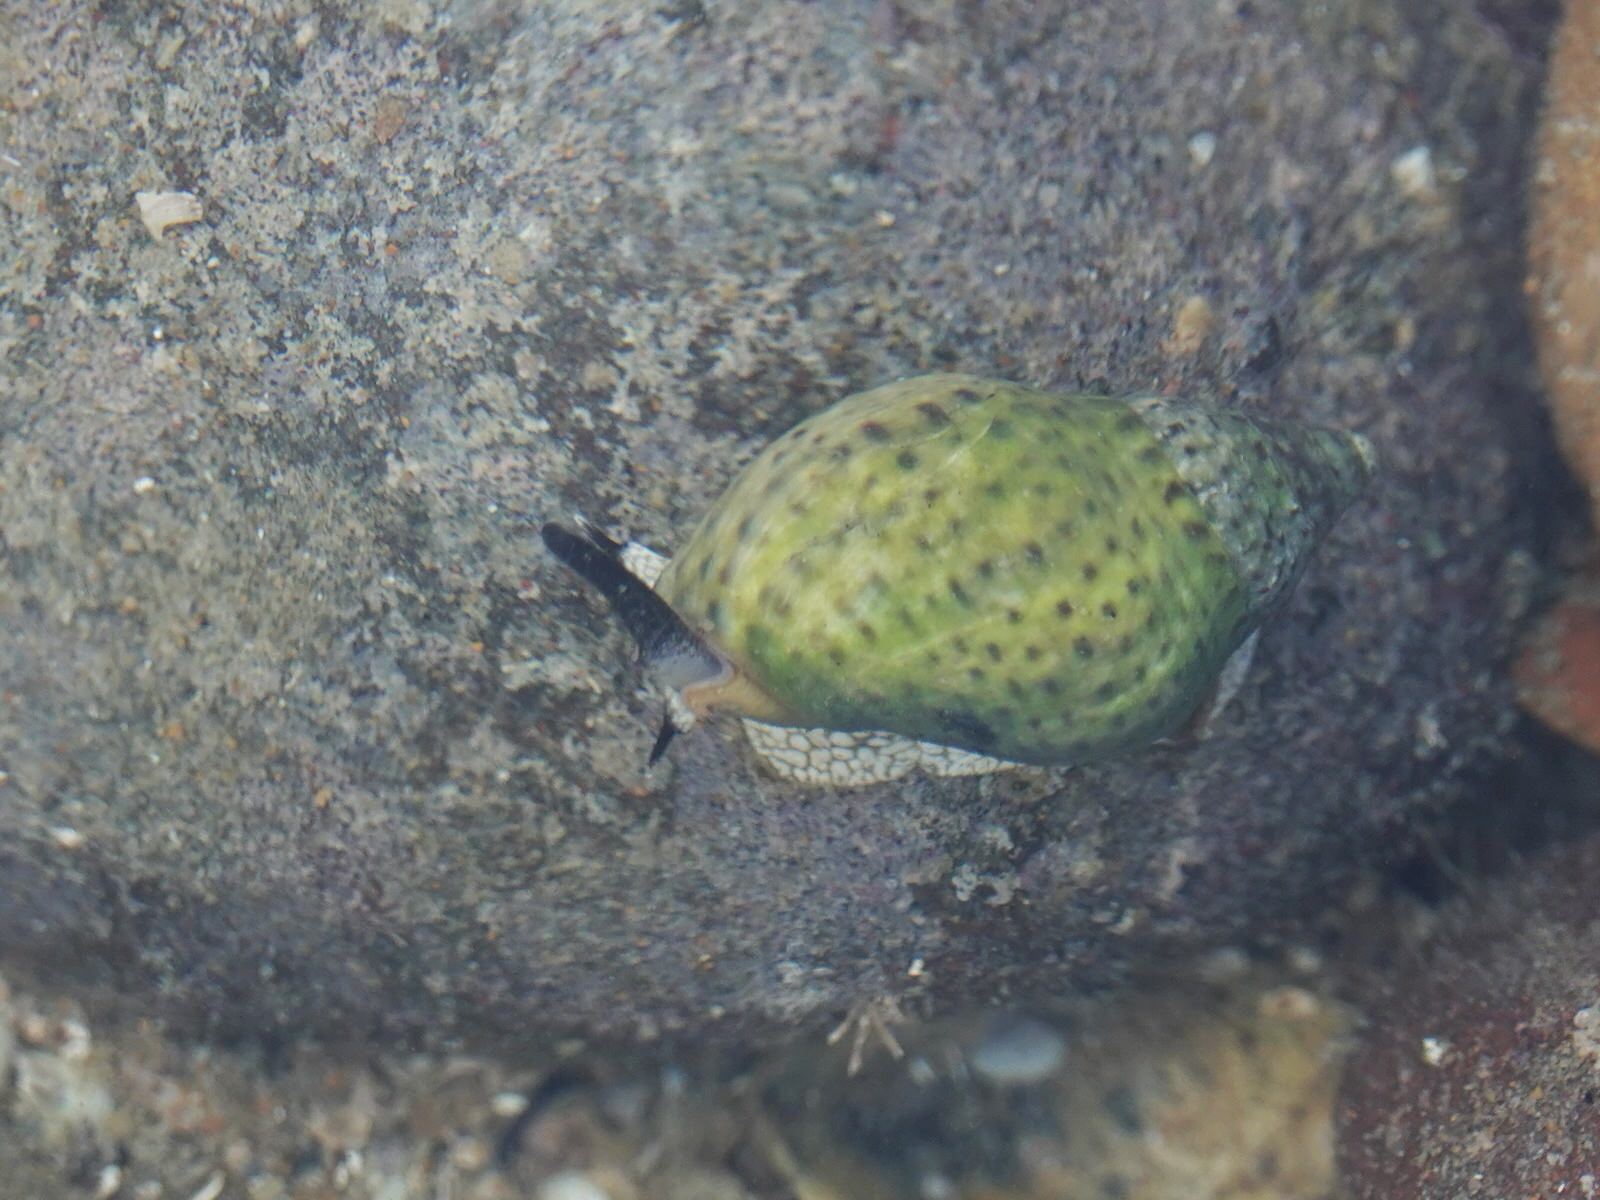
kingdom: Animalia
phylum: Mollusca
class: Gastropoda
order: Neogastropoda
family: Cominellidae
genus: Cominella
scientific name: Cominella maculosa
